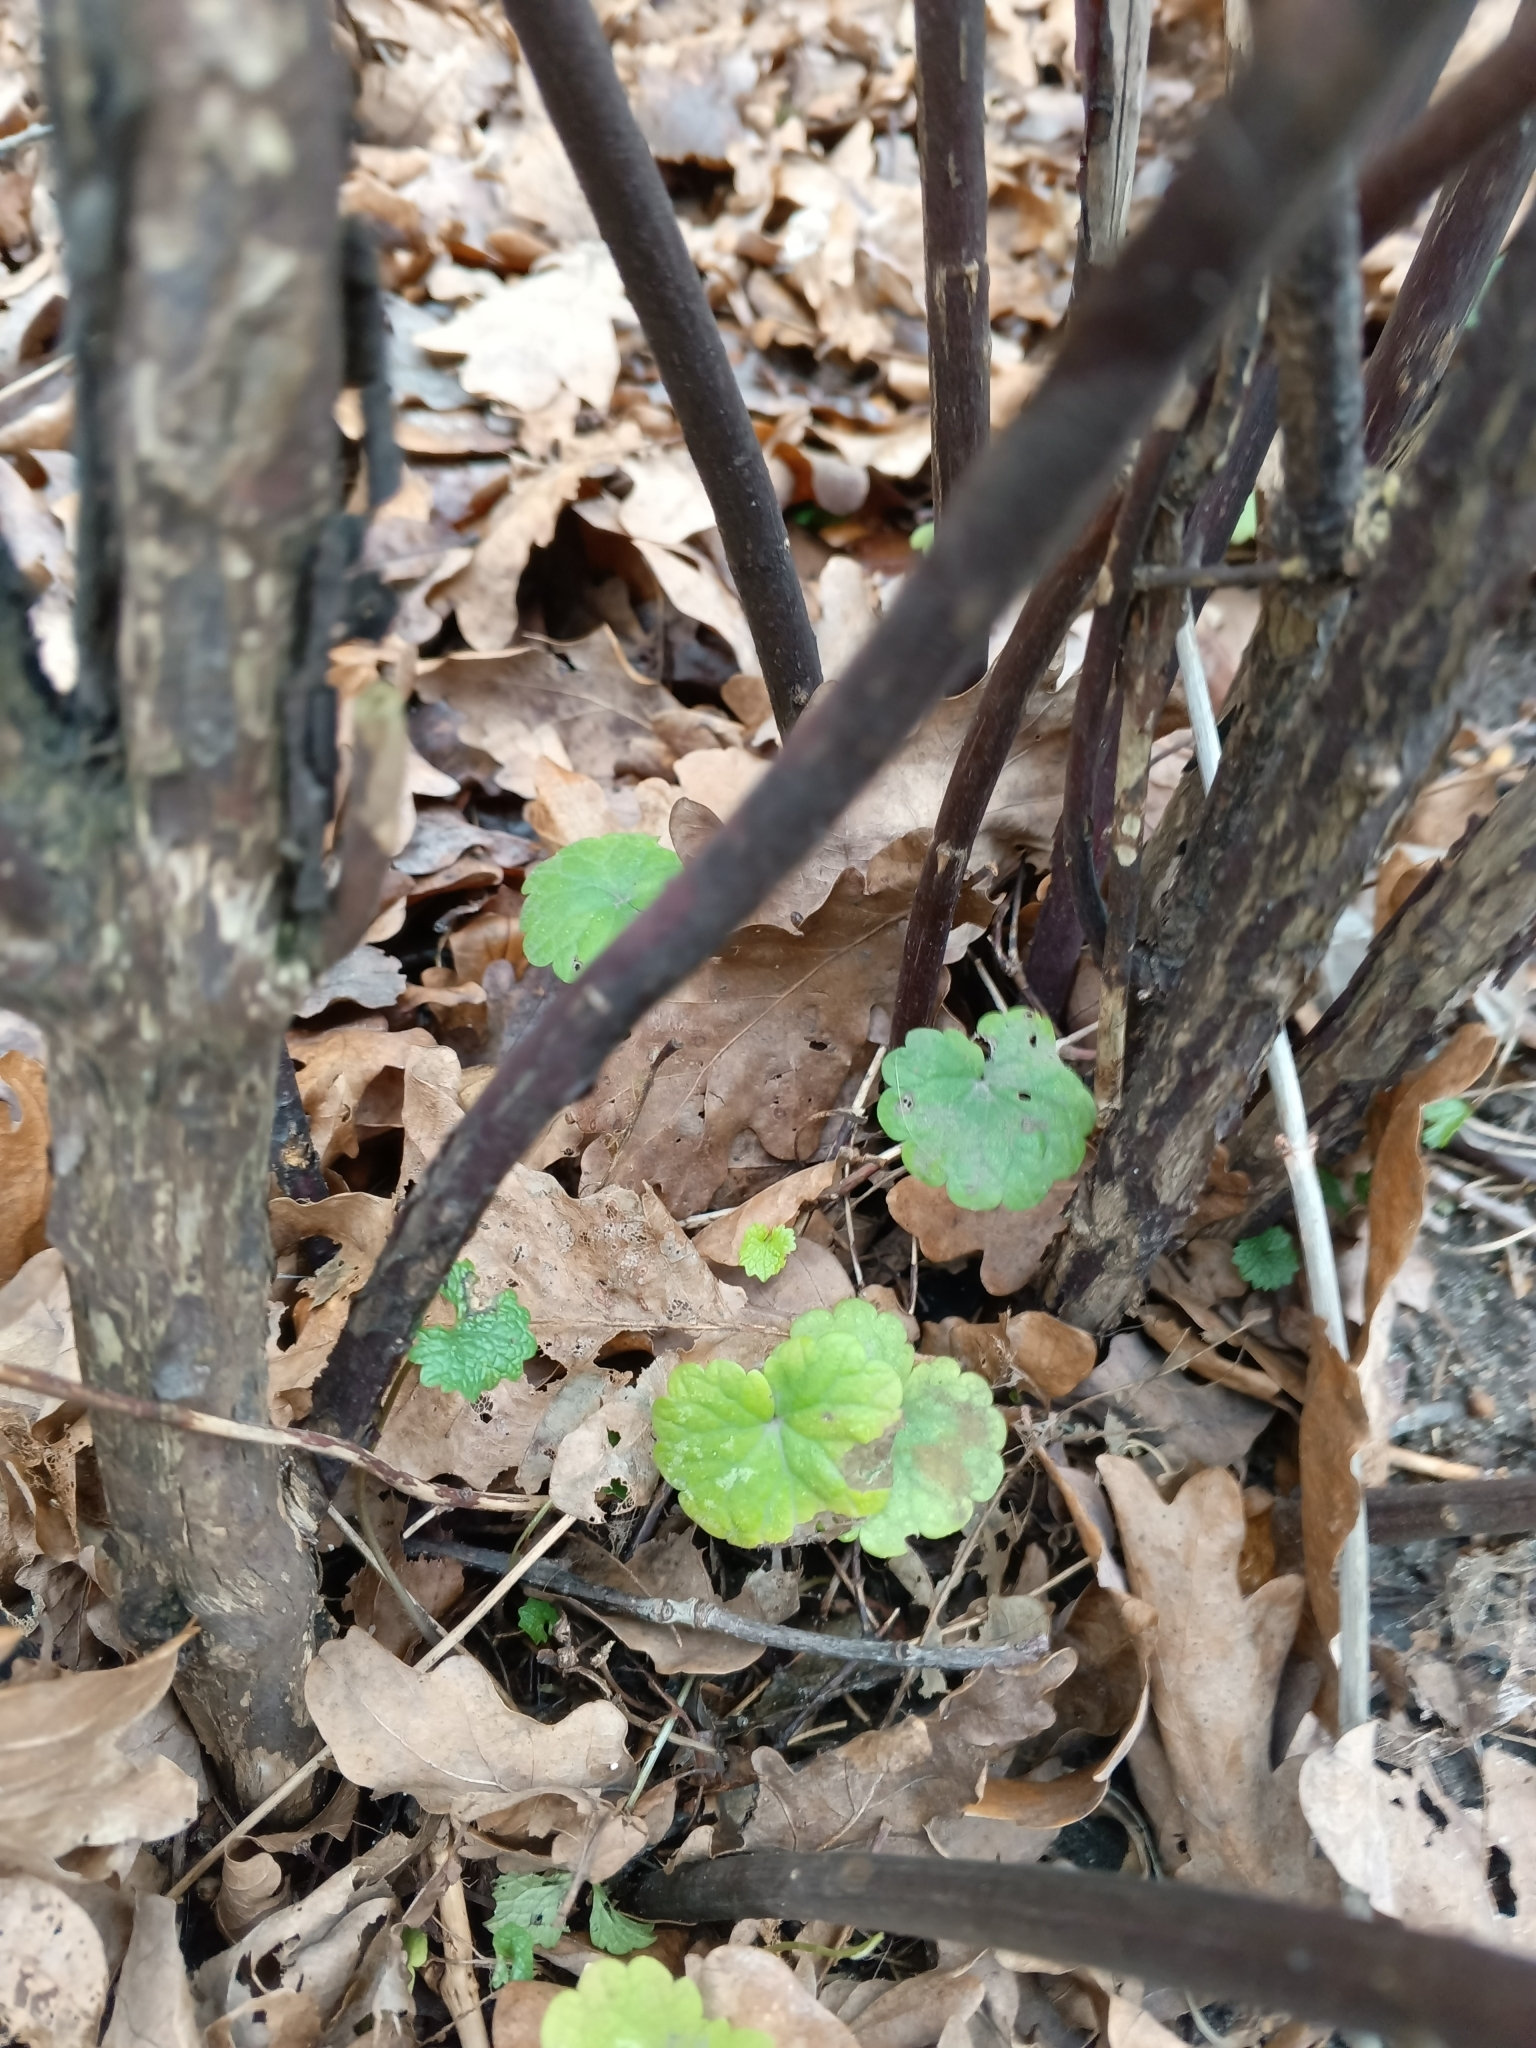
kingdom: Plantae
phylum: Tracheophyta
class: Magnoliopsida
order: Lamiales
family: Lamiaceae
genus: Glechoma
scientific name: Glechoma hederacea
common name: Ground ivy
